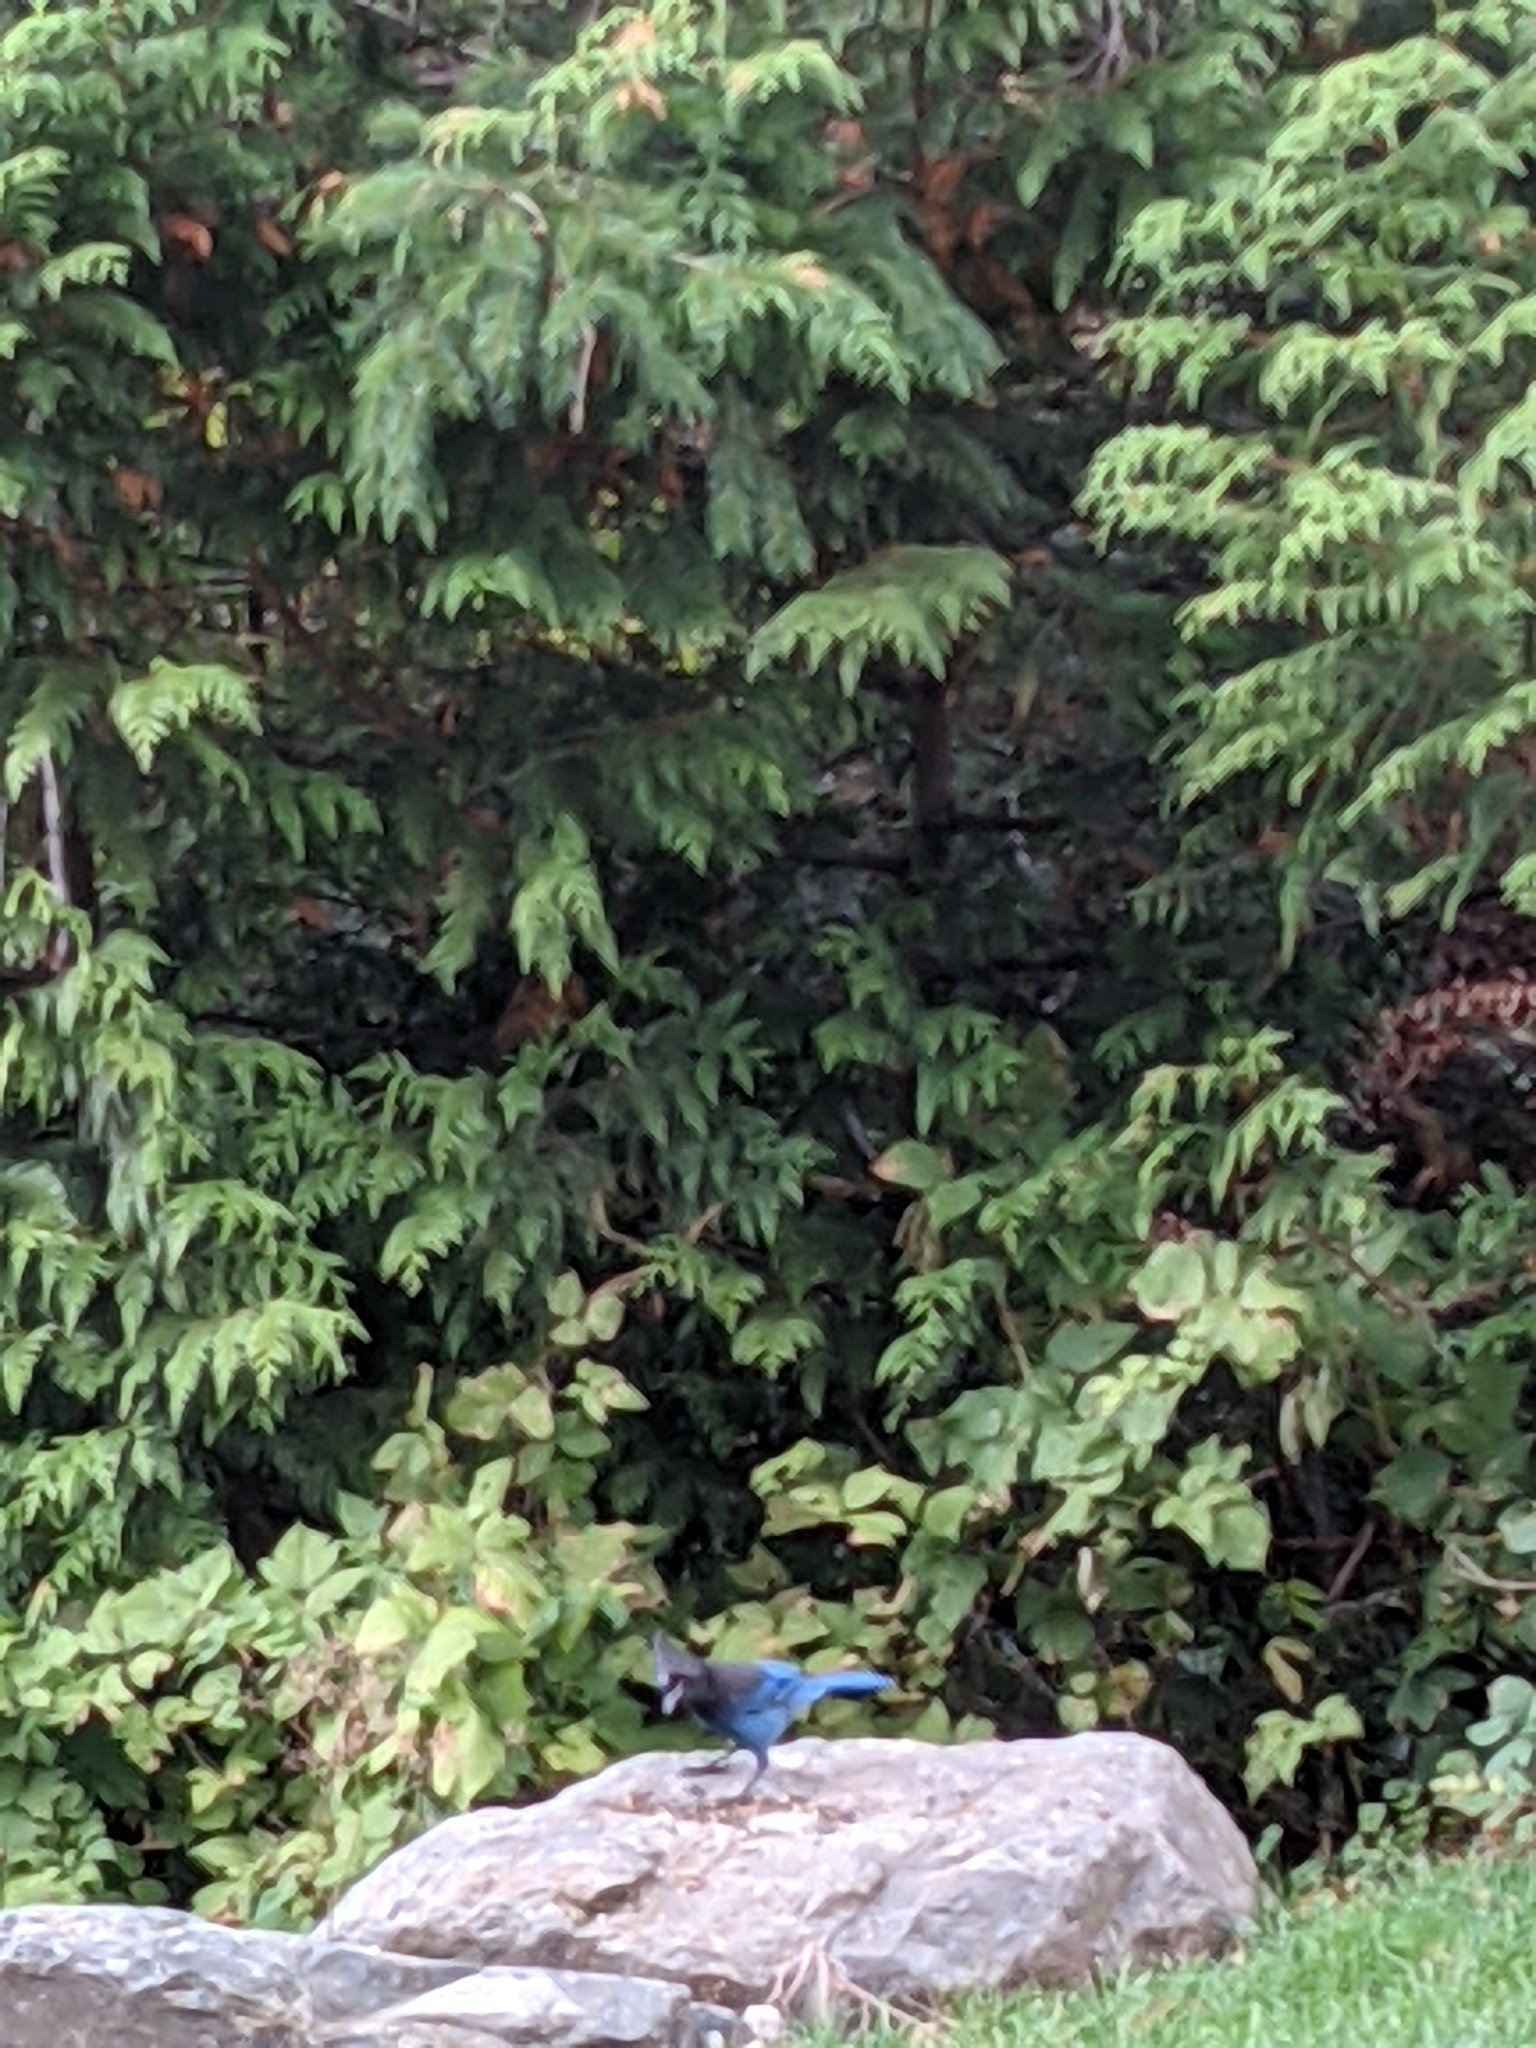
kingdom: Animalia
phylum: Chordata
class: Aves
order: Passeriformes
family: Corvidae
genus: Cyanocitta
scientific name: Cyanocitta stelleri
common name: Steller's jay
